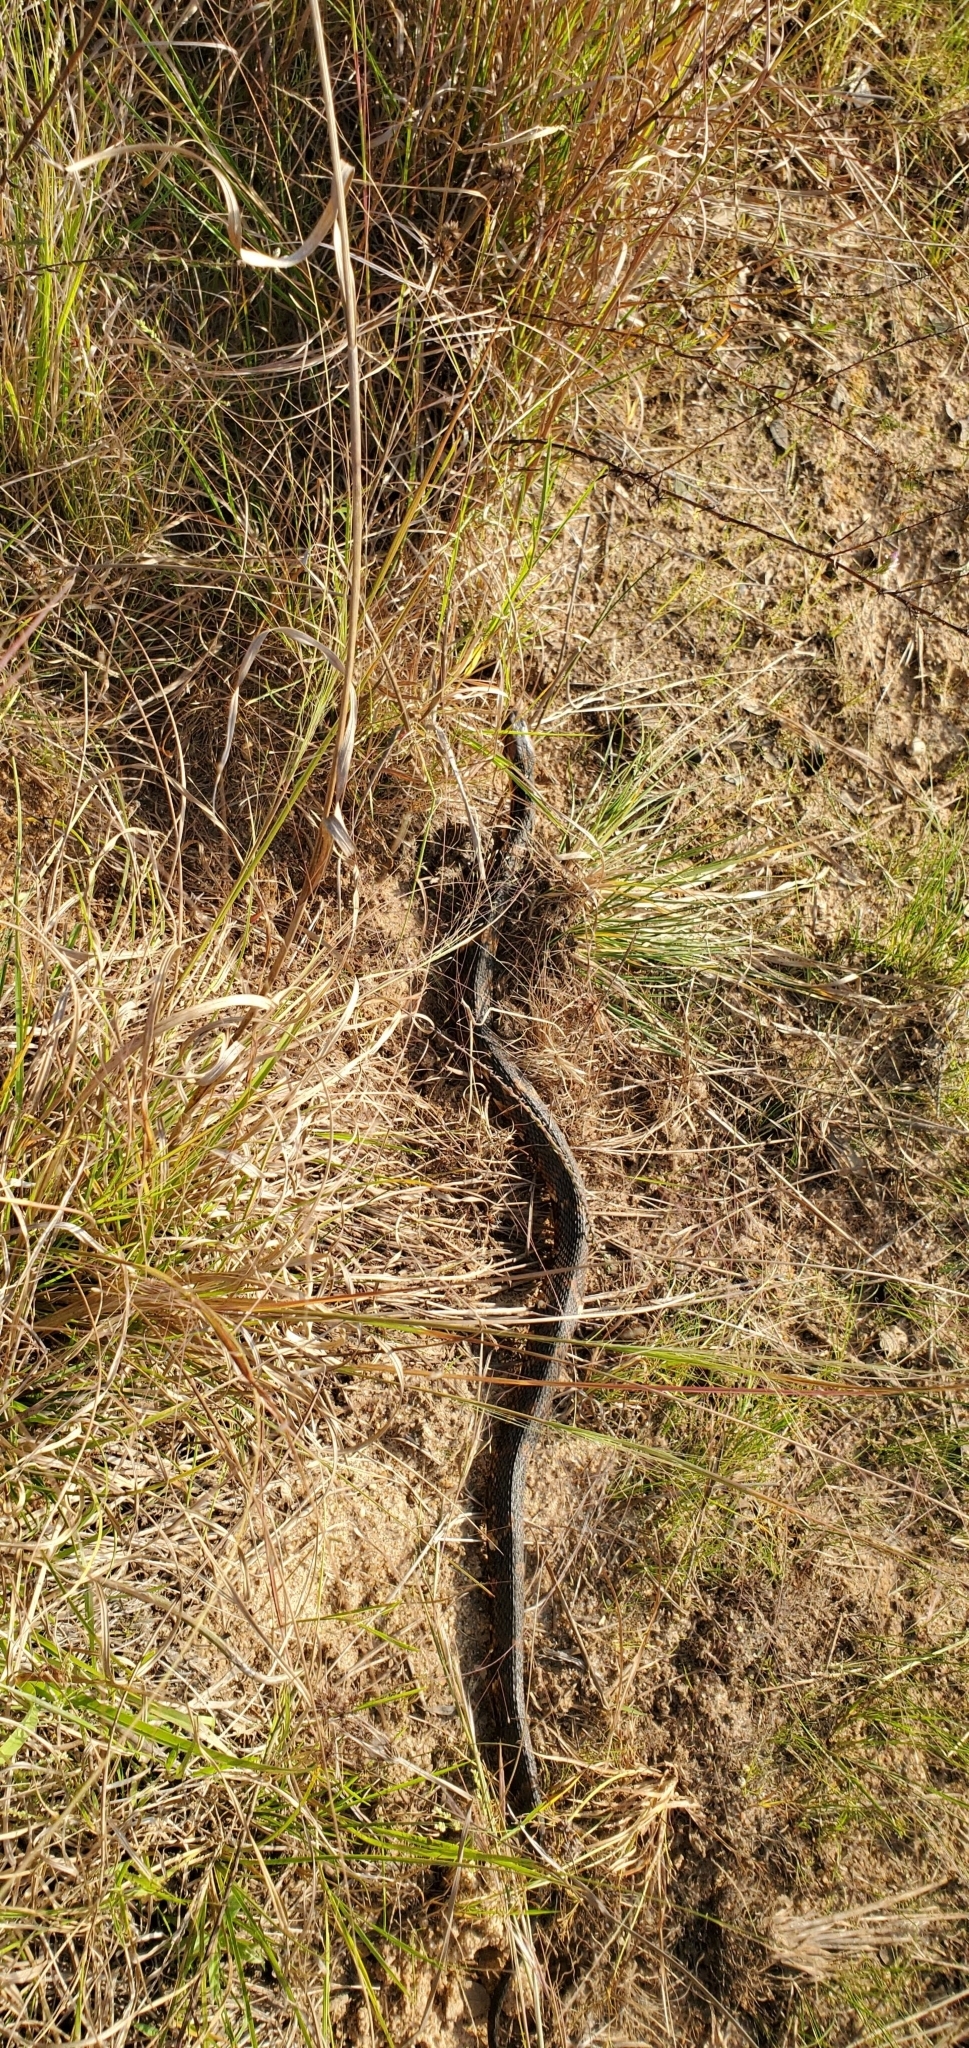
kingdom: Animalia
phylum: Chordata
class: Squamata
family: Colubridae
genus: Nerodia
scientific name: Nerodia fasciata
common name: Southern water snake
